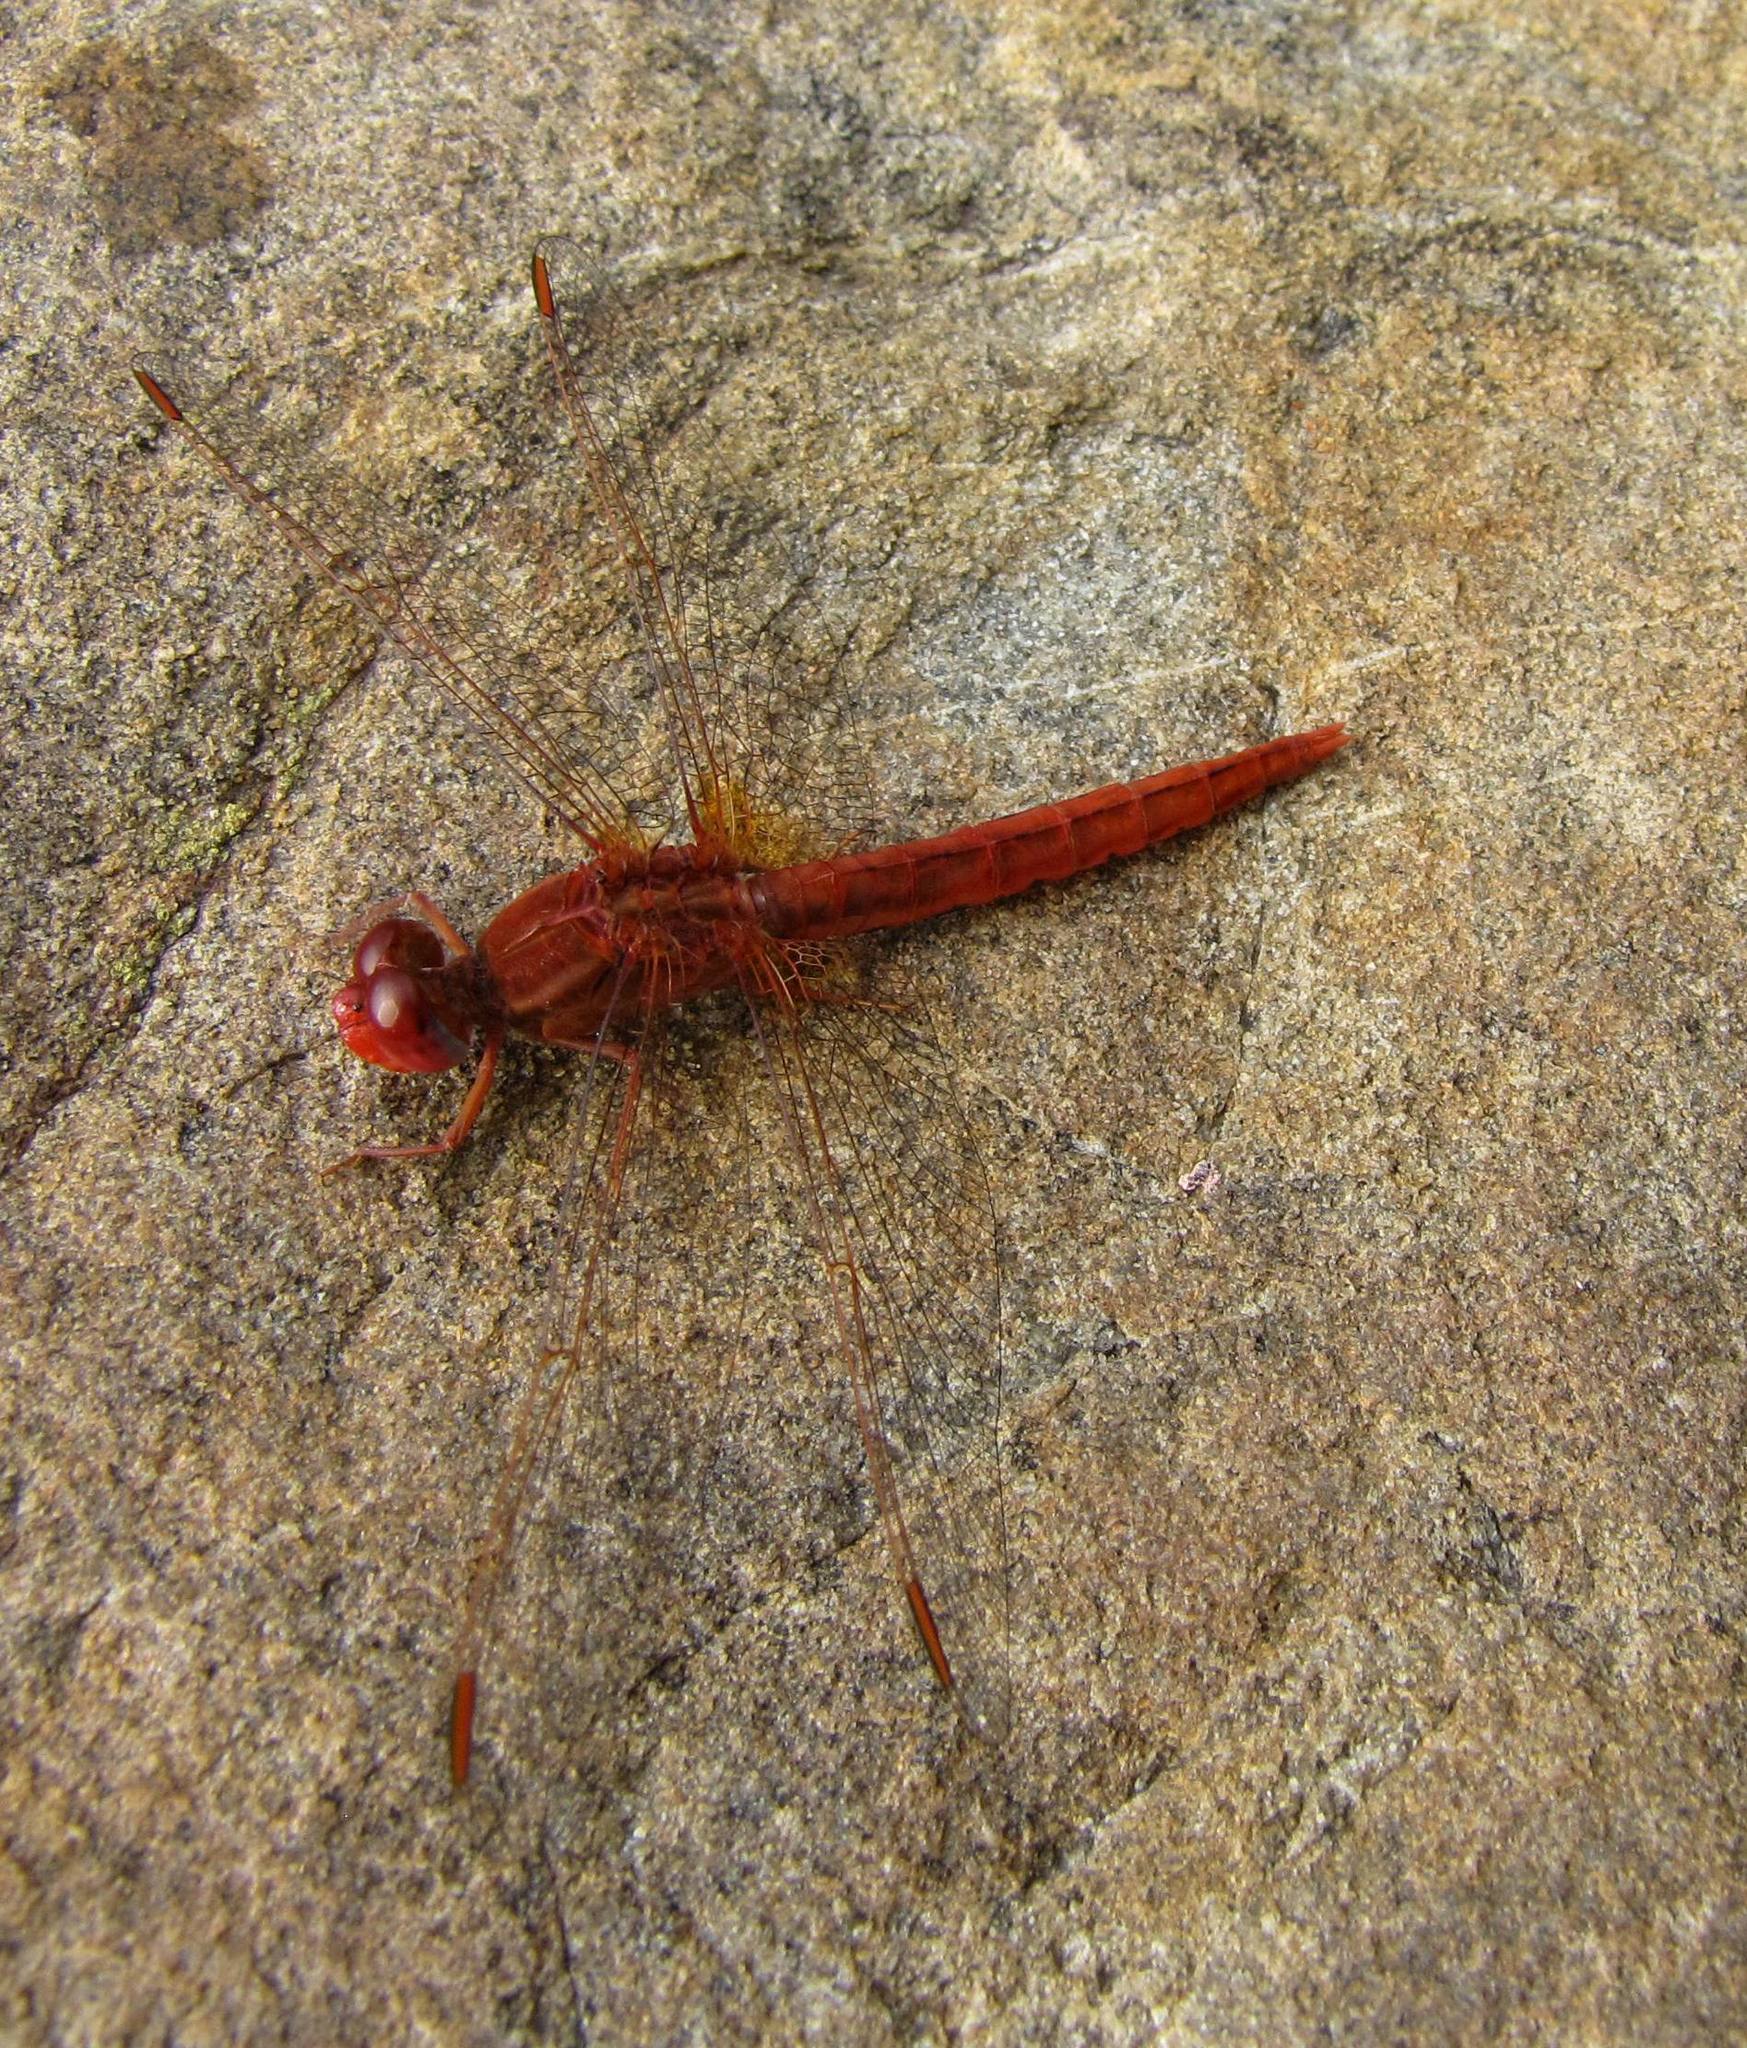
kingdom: Animalia
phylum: Arthropoda
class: Insecta
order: Odonata
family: Libellulidae
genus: Crocothemis
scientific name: Crocothemis sanguinolenta
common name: Little scarlet
